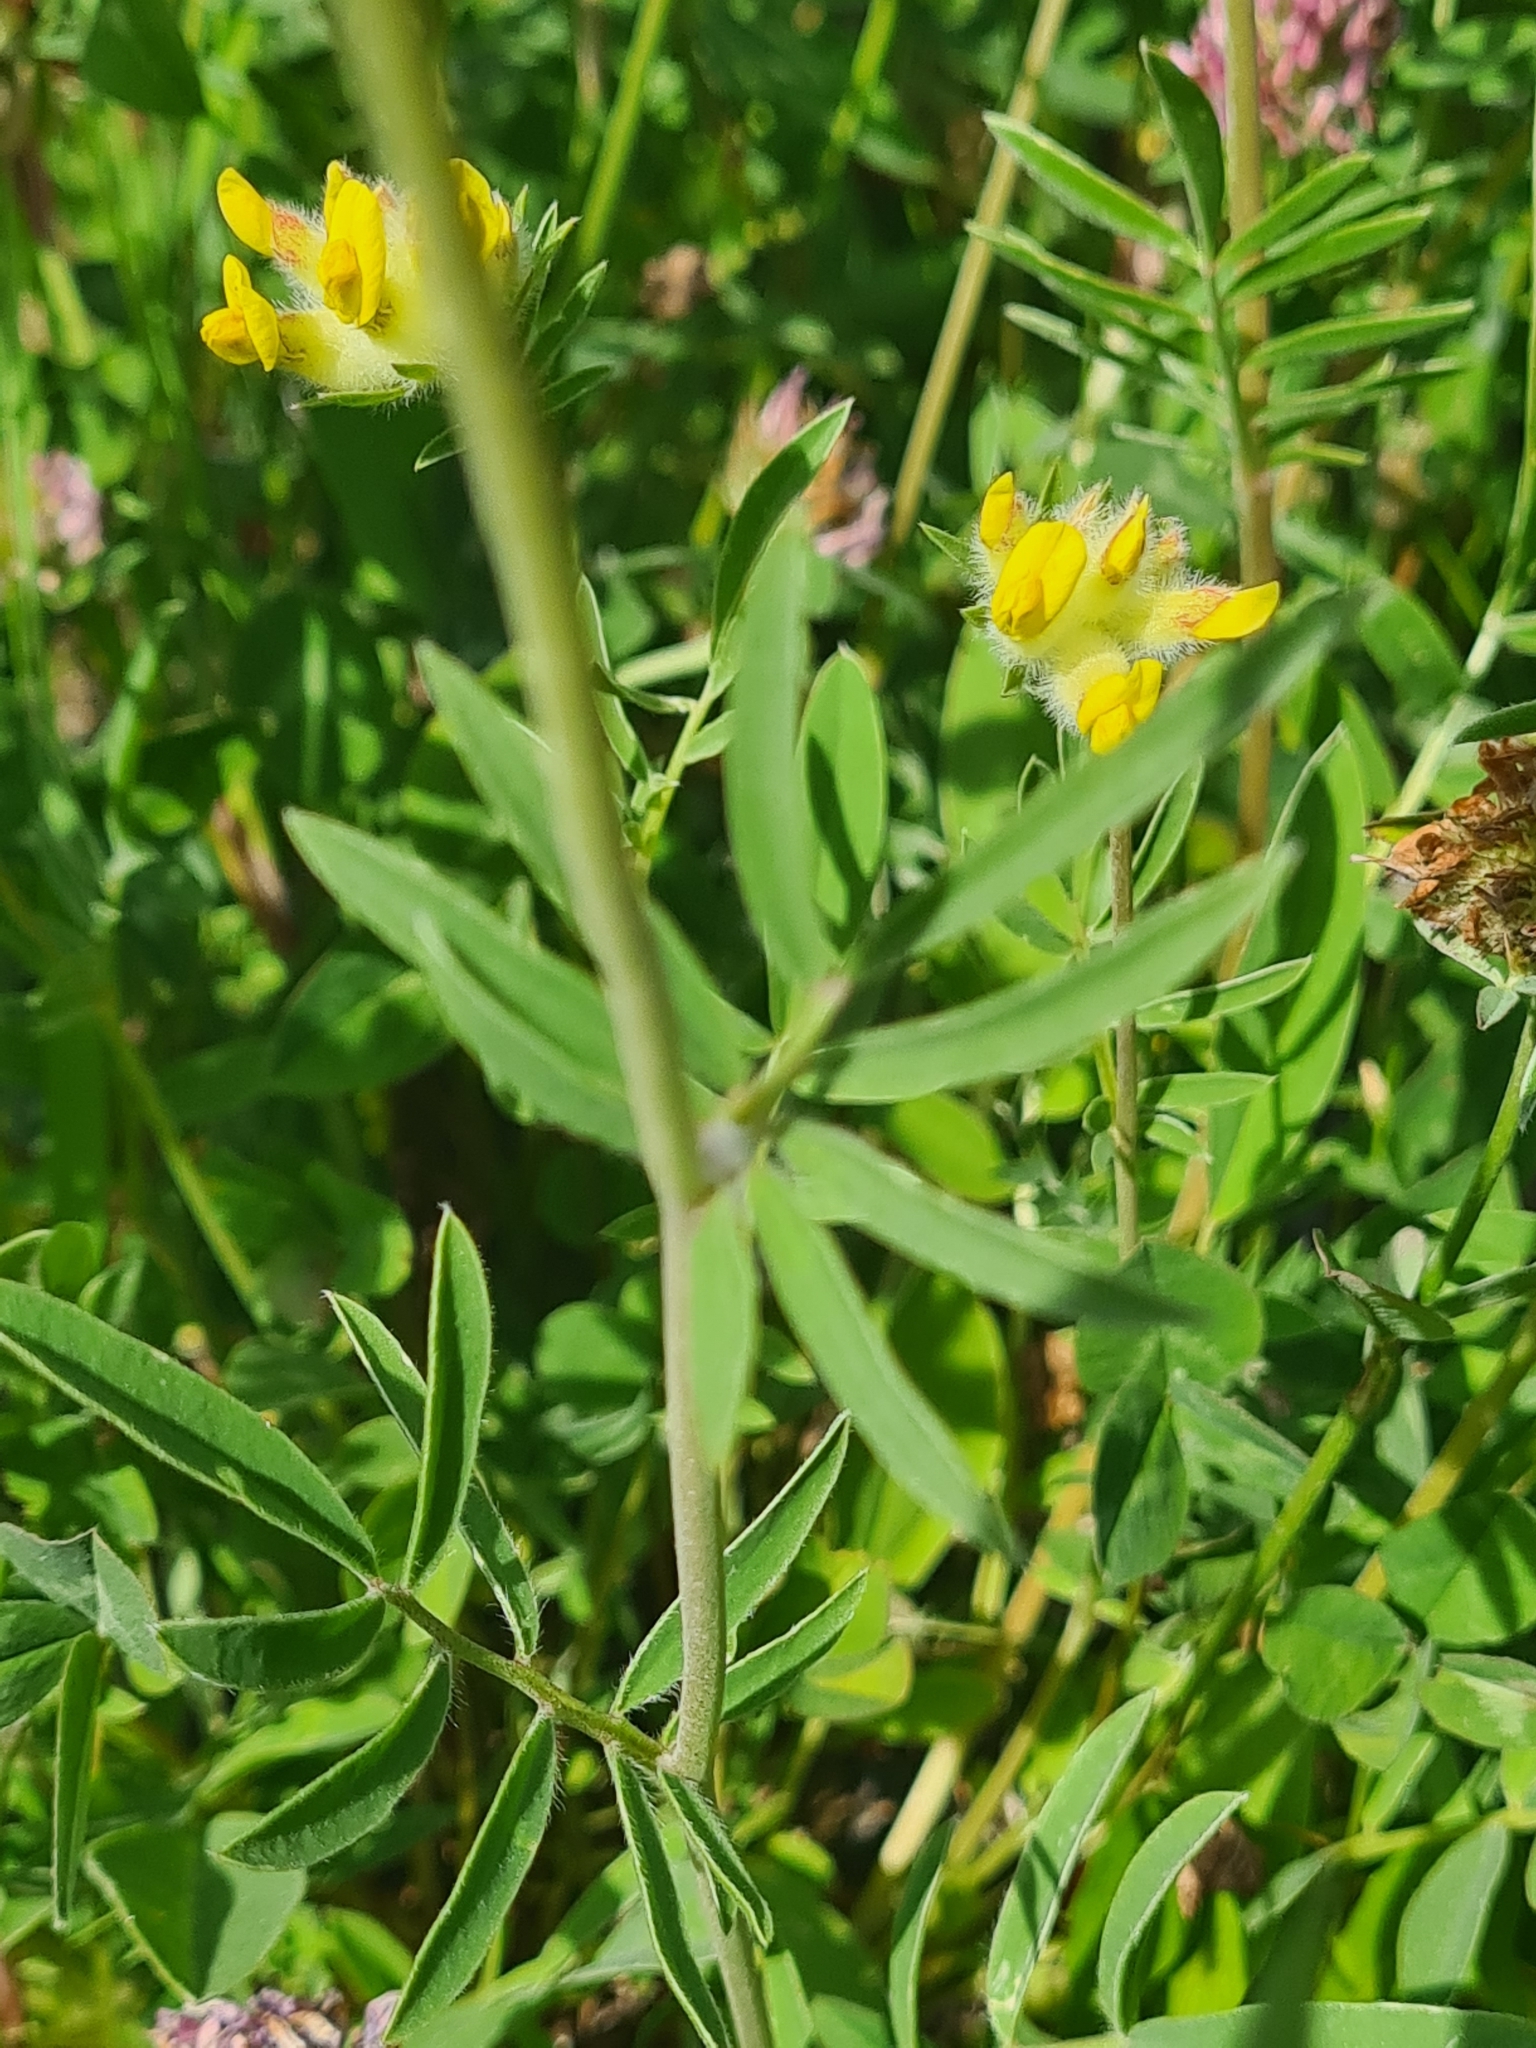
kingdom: Plantae
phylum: Tracheophyta
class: Magnoliopsida
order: Fabales
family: Fabaceae
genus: Anthyllis
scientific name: Anthyllis vulneraria
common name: Kidney vetch
